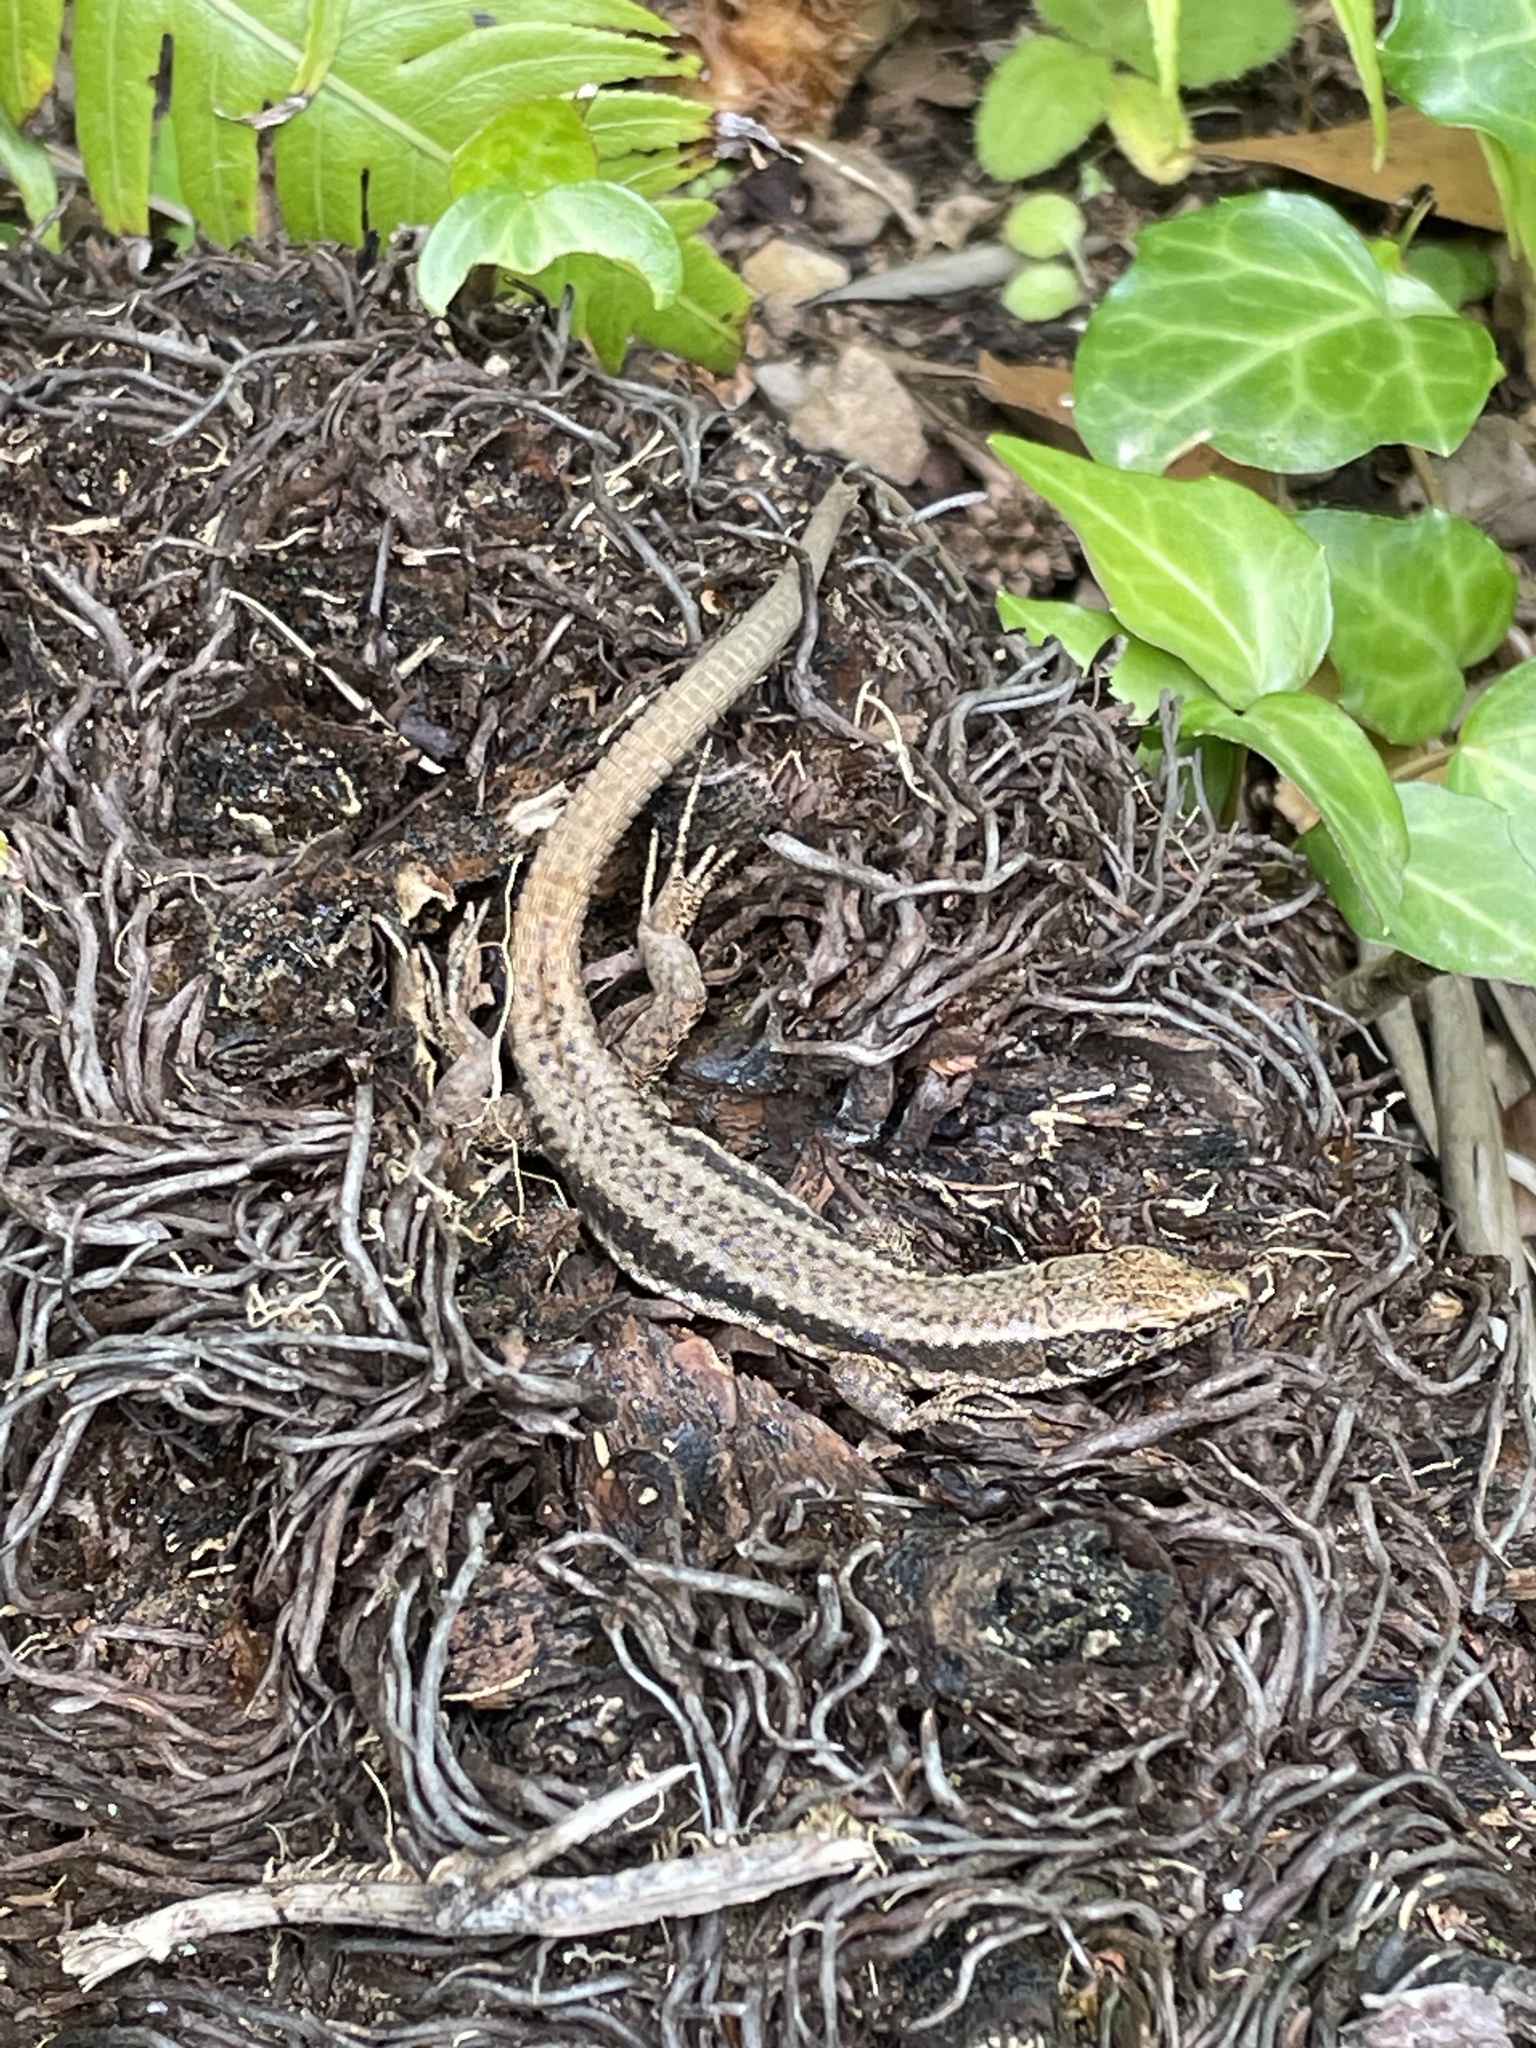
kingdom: Animalia
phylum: Chordata
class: Squamata
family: Lacertidae
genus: Teira
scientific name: Teira dugesii
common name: Madeira lizard
